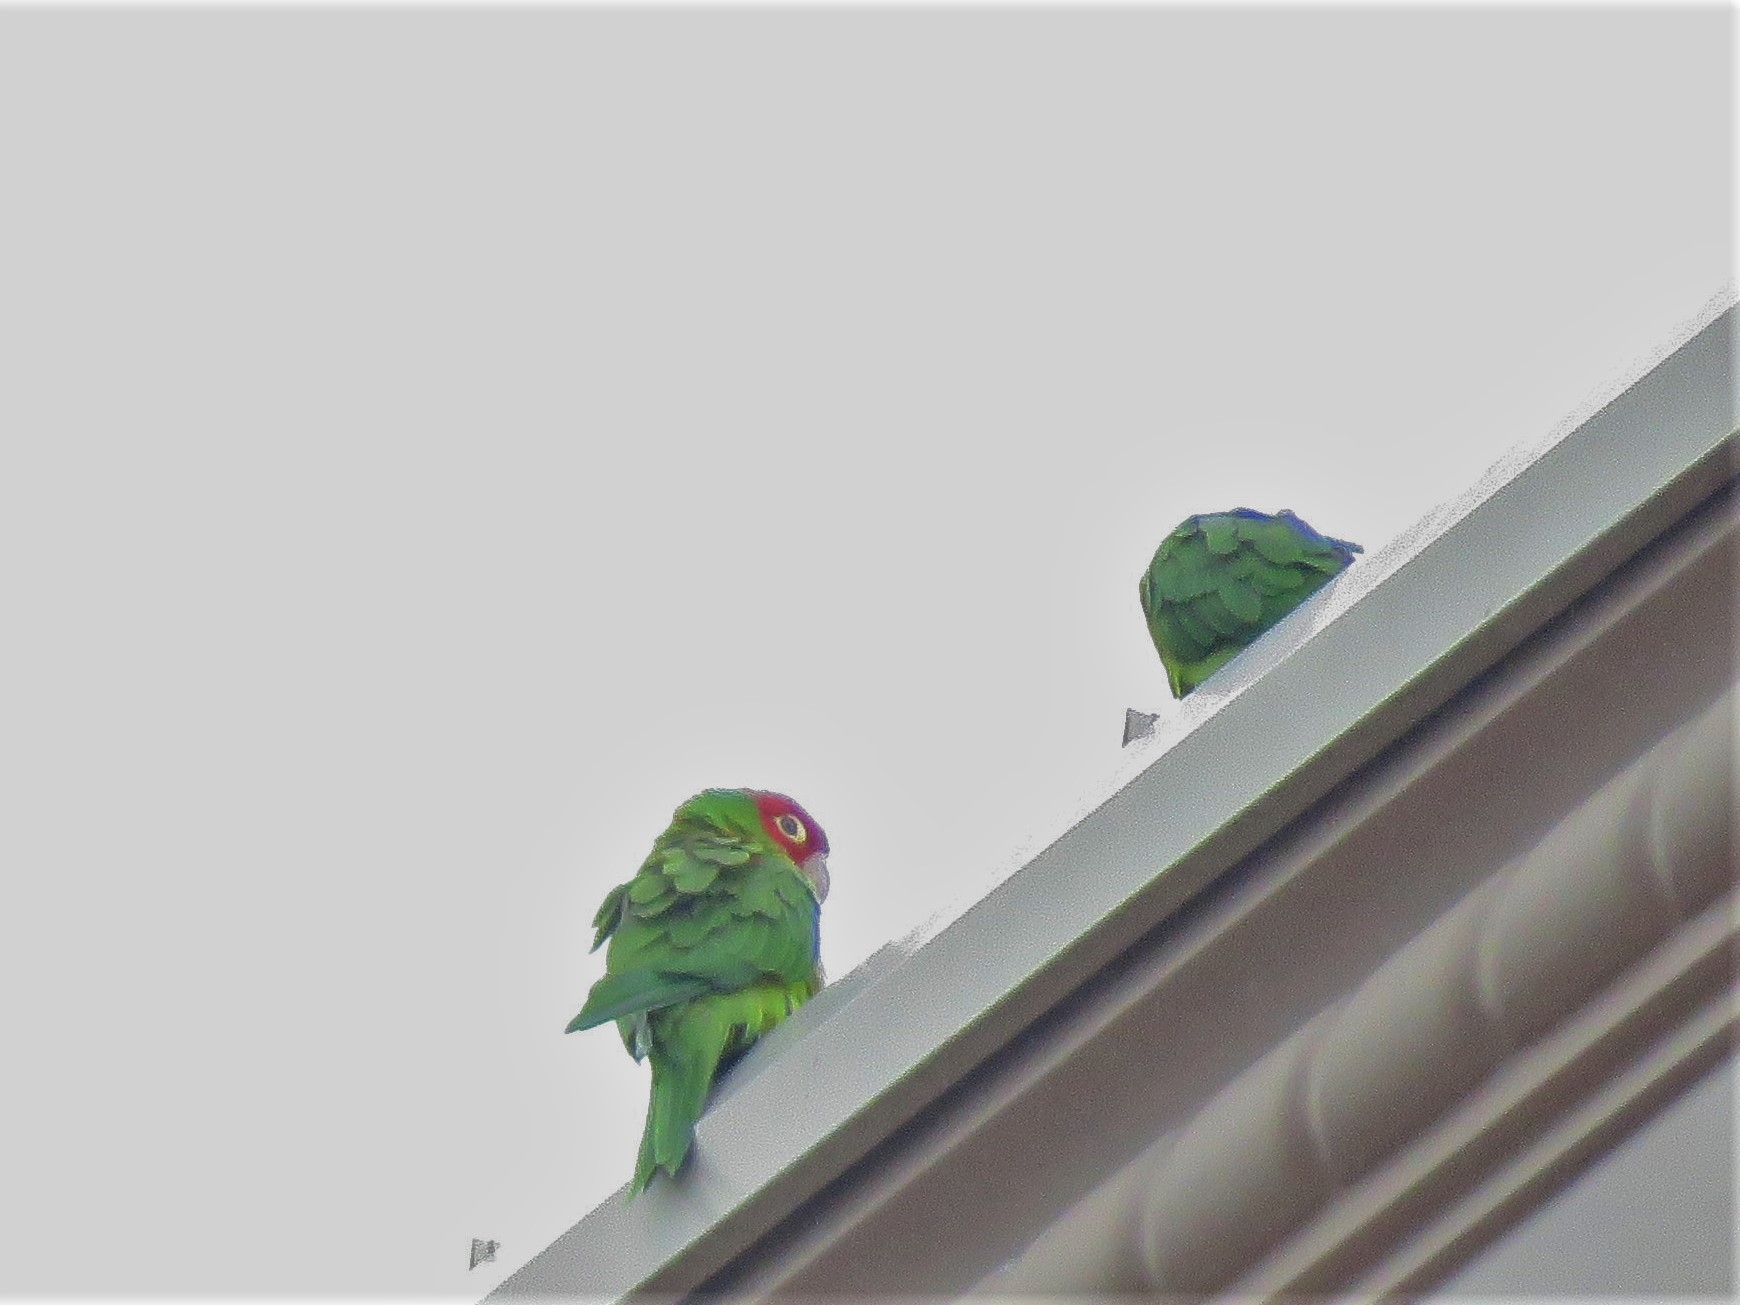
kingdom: Animalia
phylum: Chordata
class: Aves
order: Psittaciformes
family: Psittacidae
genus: Aratinga
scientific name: Aratinga erythrogenys
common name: Red-masked parakeet
